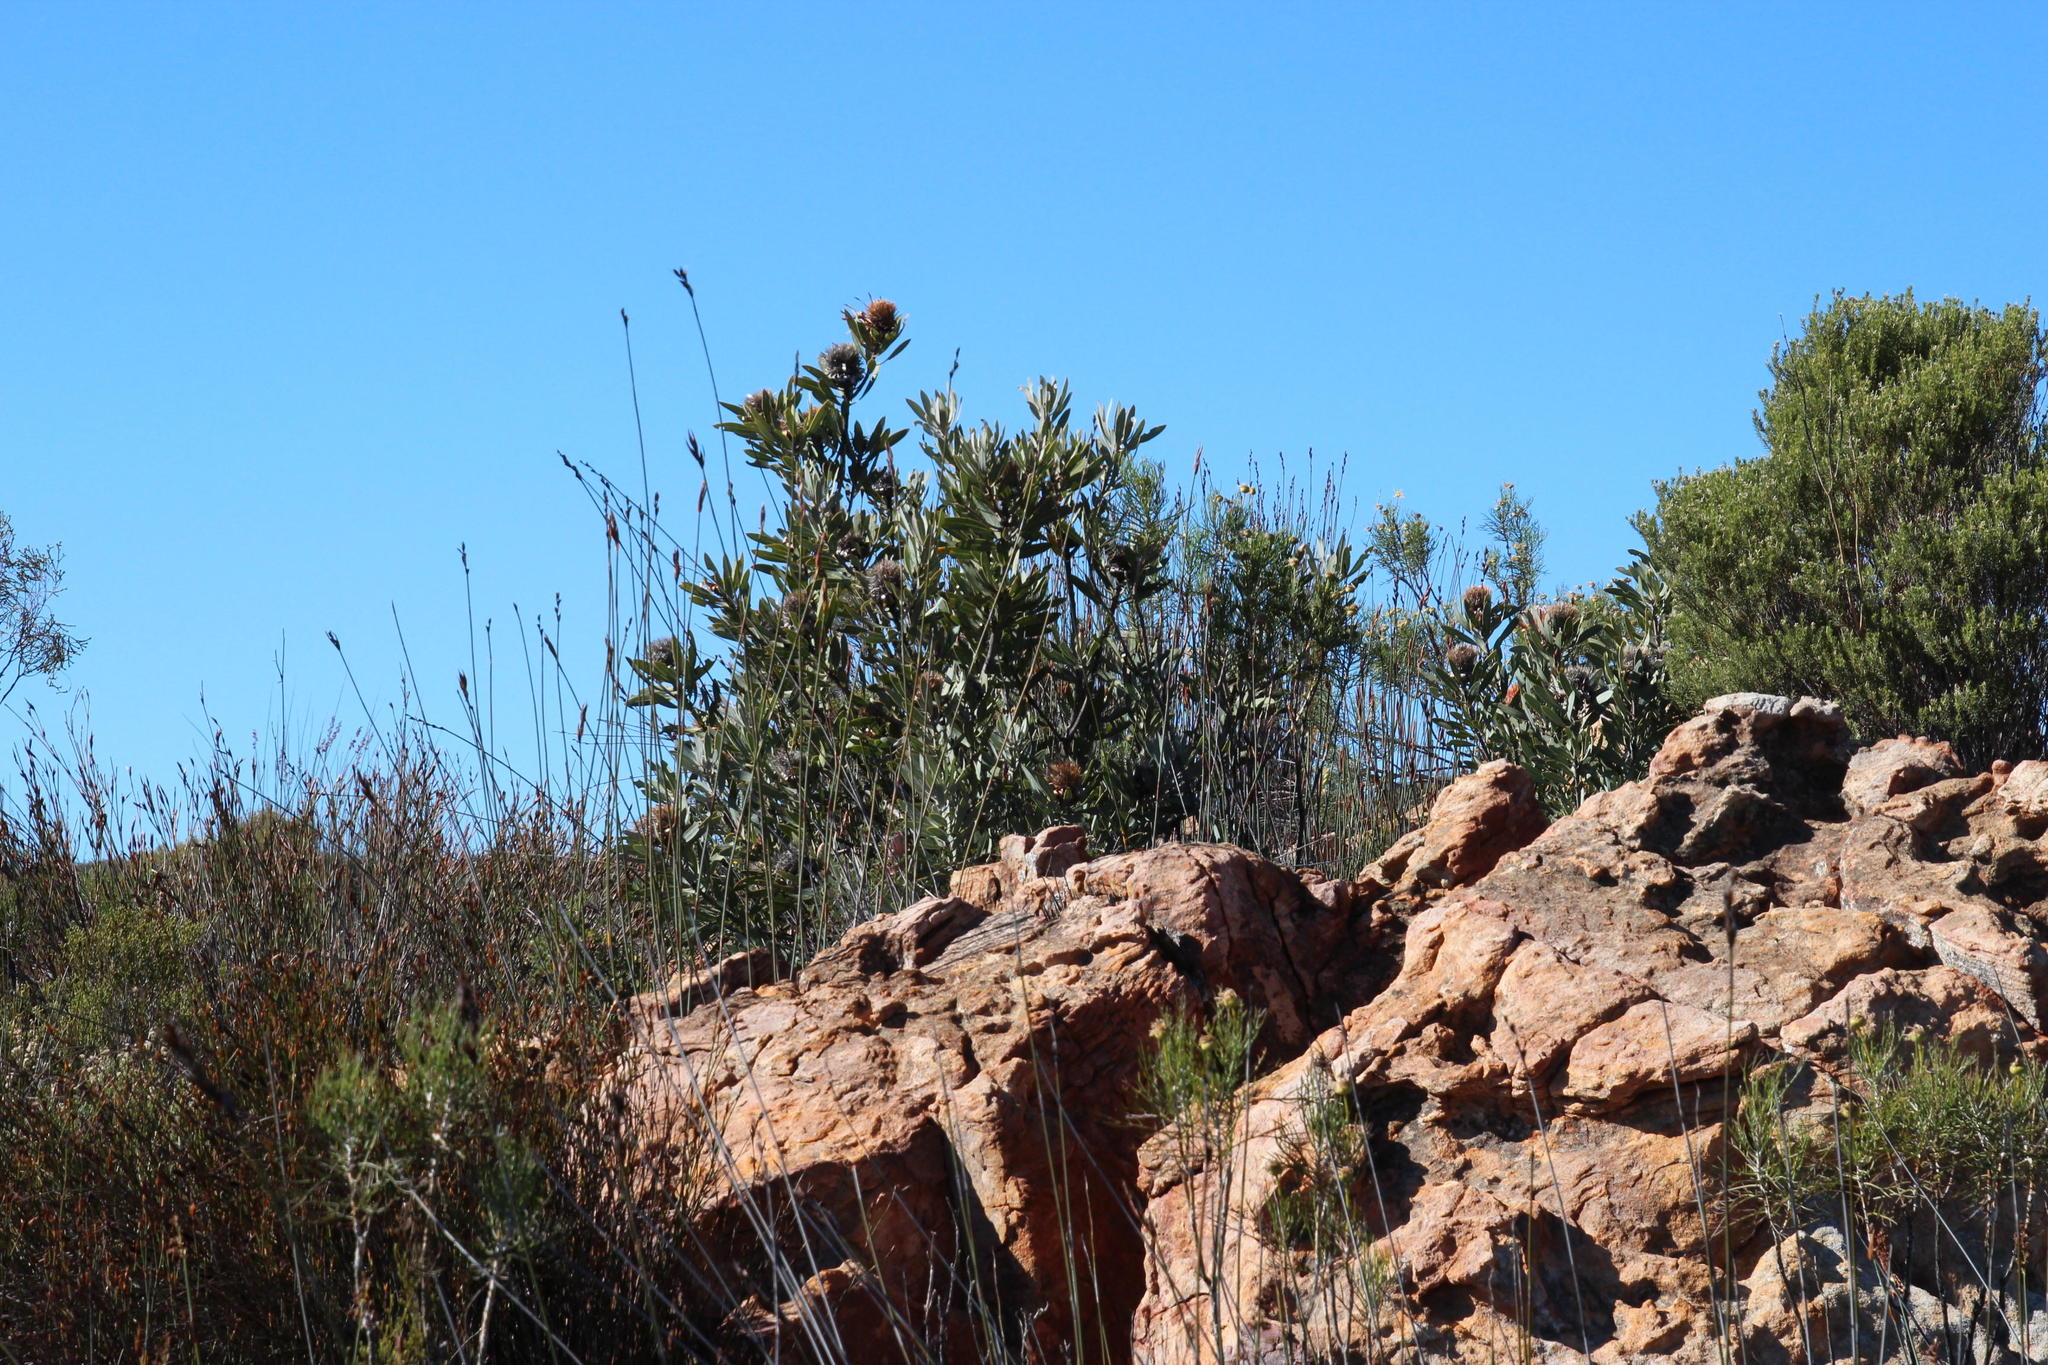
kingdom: Plantae
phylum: Tracheophyta
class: Magnoliopsida
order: Proteales
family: Proteaceae
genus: Protea
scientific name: Protea laurifolia
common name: Grey-leaf sugarbsh
